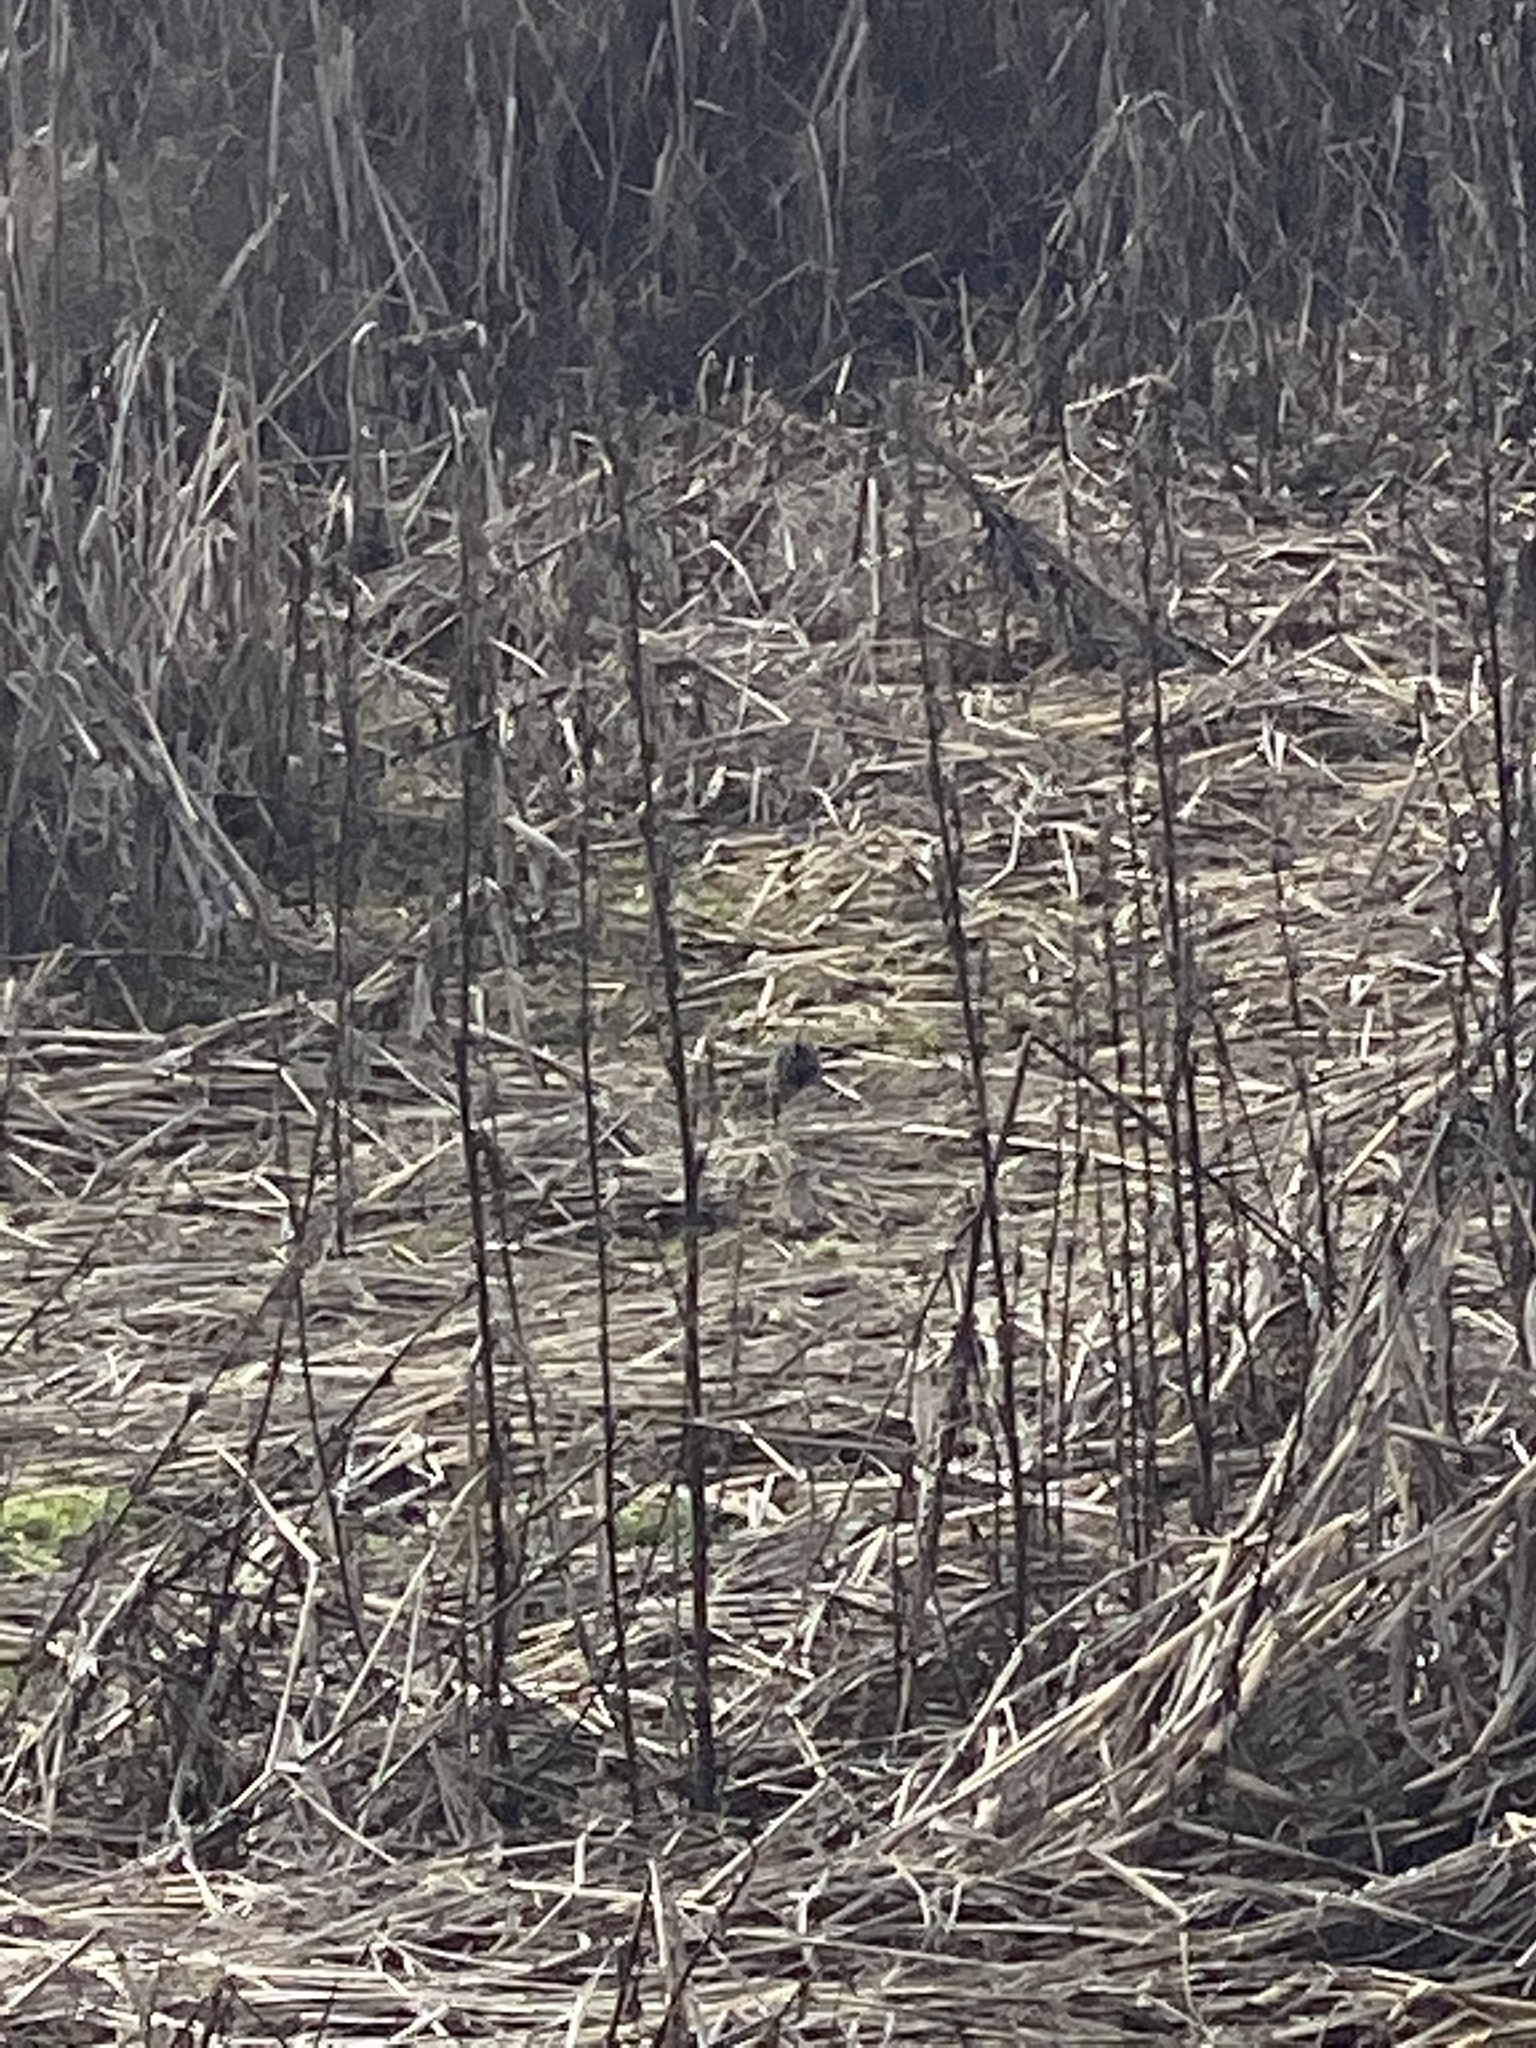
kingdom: Animalia
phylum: Chordata
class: Aves
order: Passeriformes
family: Passerellidae
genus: Spizella
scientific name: Spizella pallida
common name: Clay-colored sparrow
